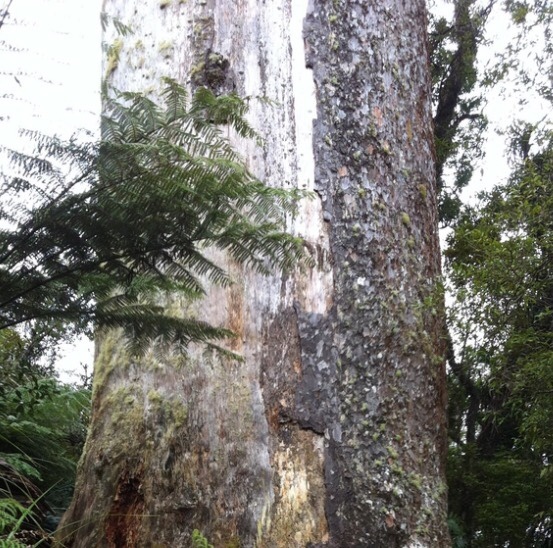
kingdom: Plantae
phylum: Tracheophyta
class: Pinopsida
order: Pinales
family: Araucariaceae
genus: Agathis
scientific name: Agathis australis
